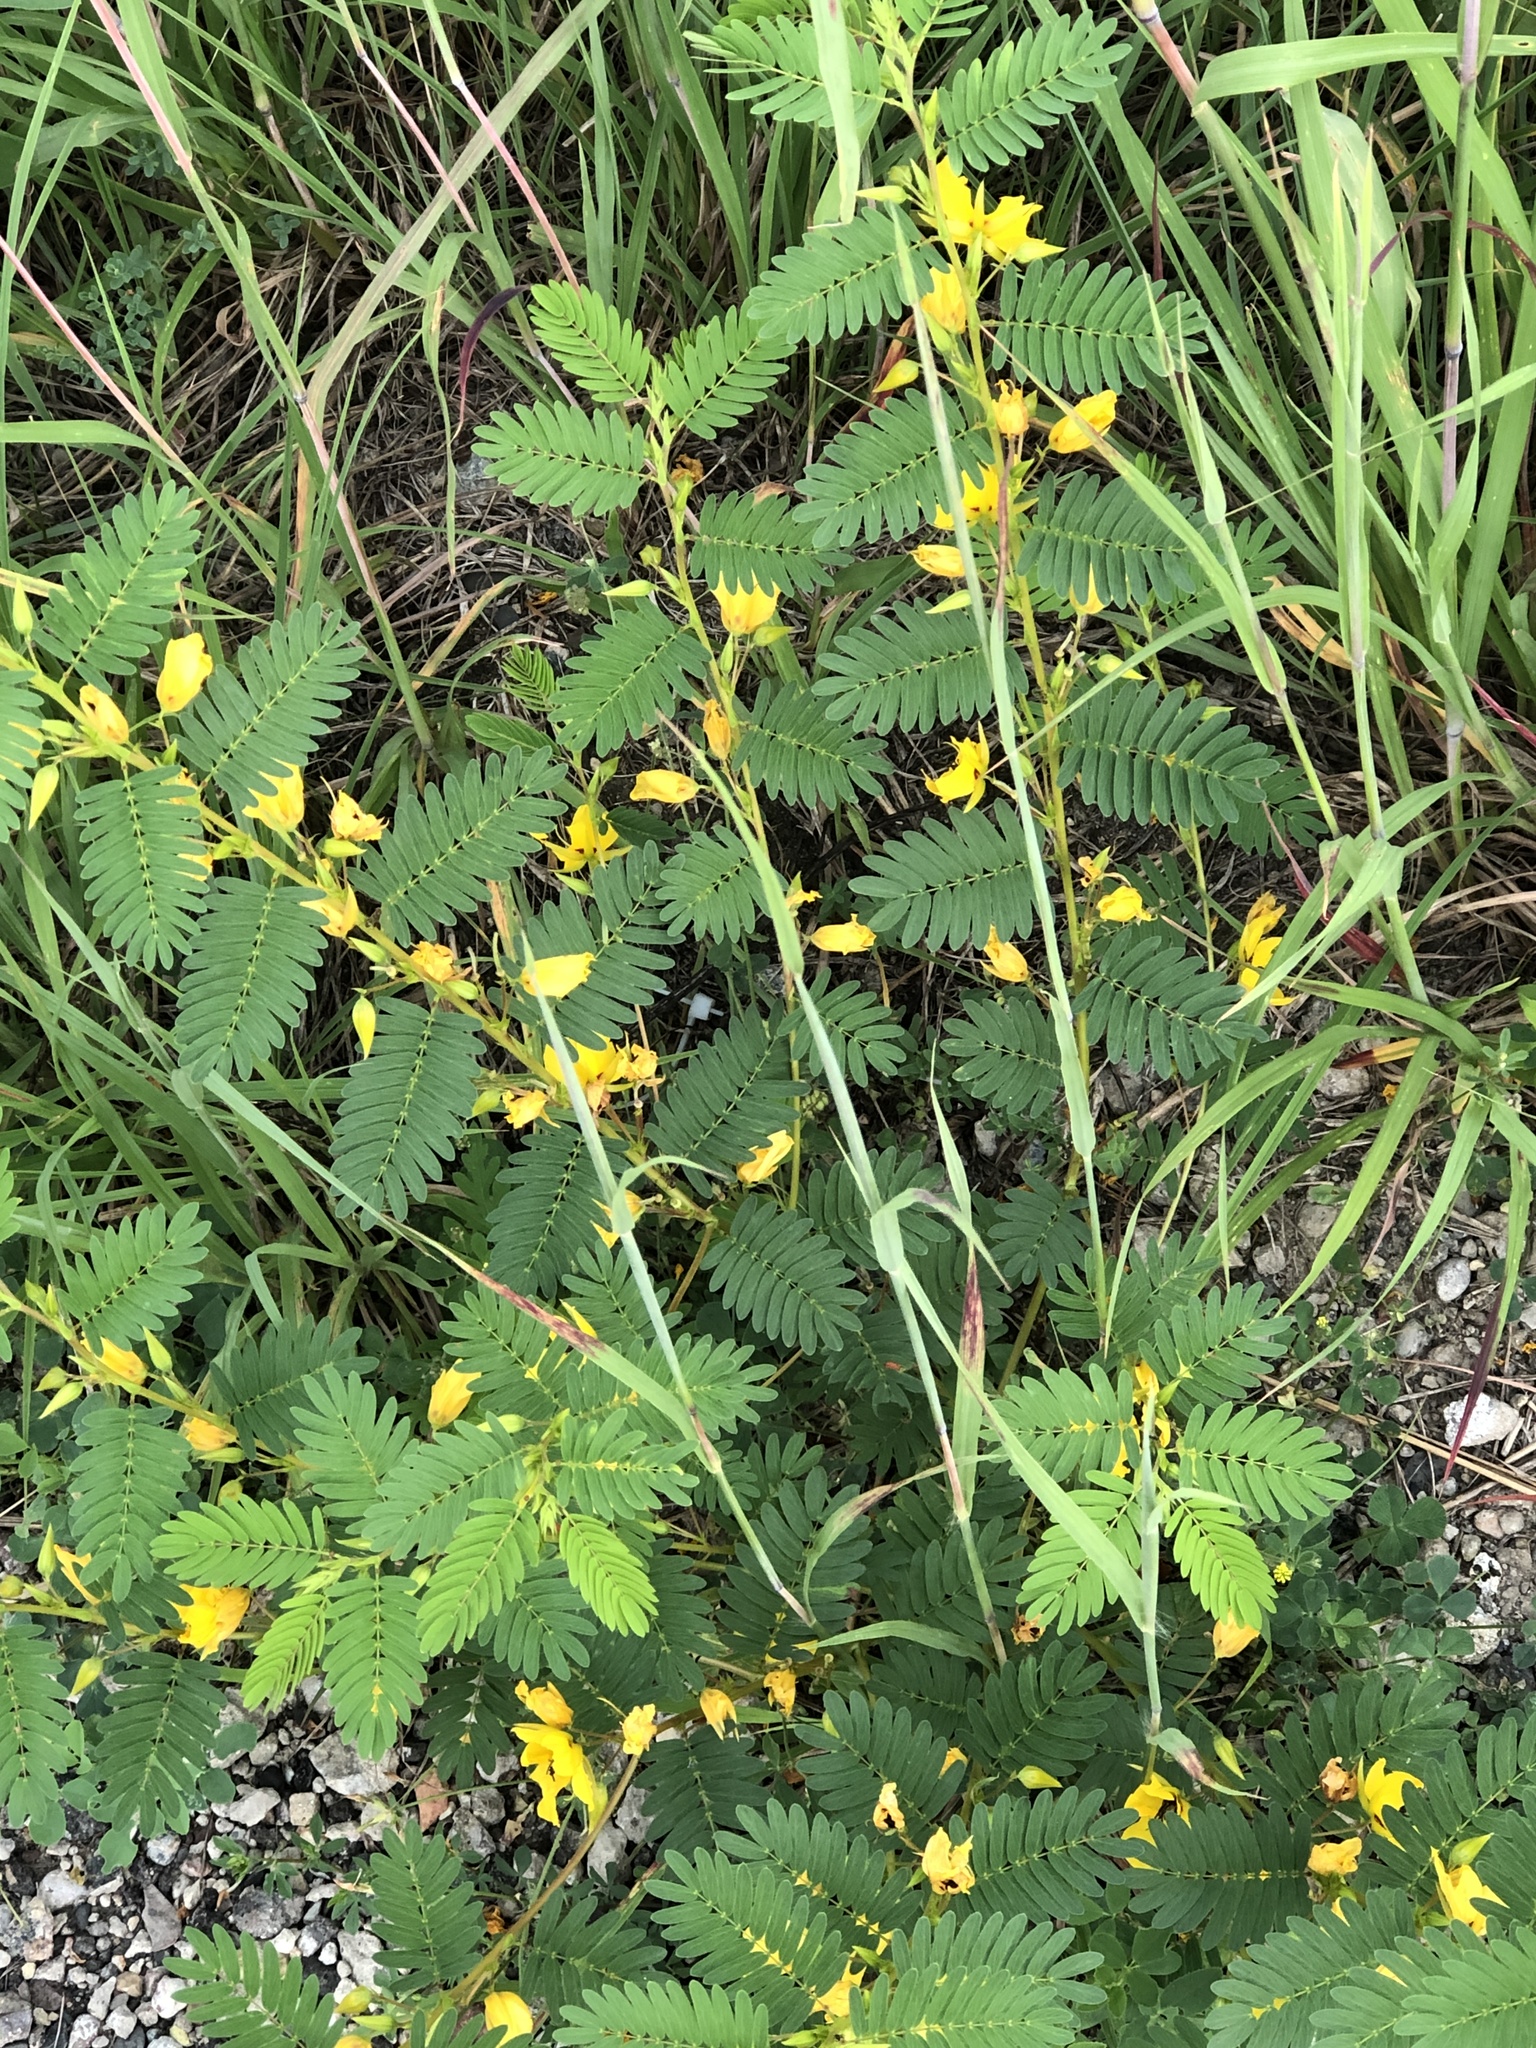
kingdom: Plantae
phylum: Tracheophyta
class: Magnoliopsida
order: Fabales
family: Fabaceae
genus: Chamaecrista
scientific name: Chamaecrista fasciculata
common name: Golden cassia
